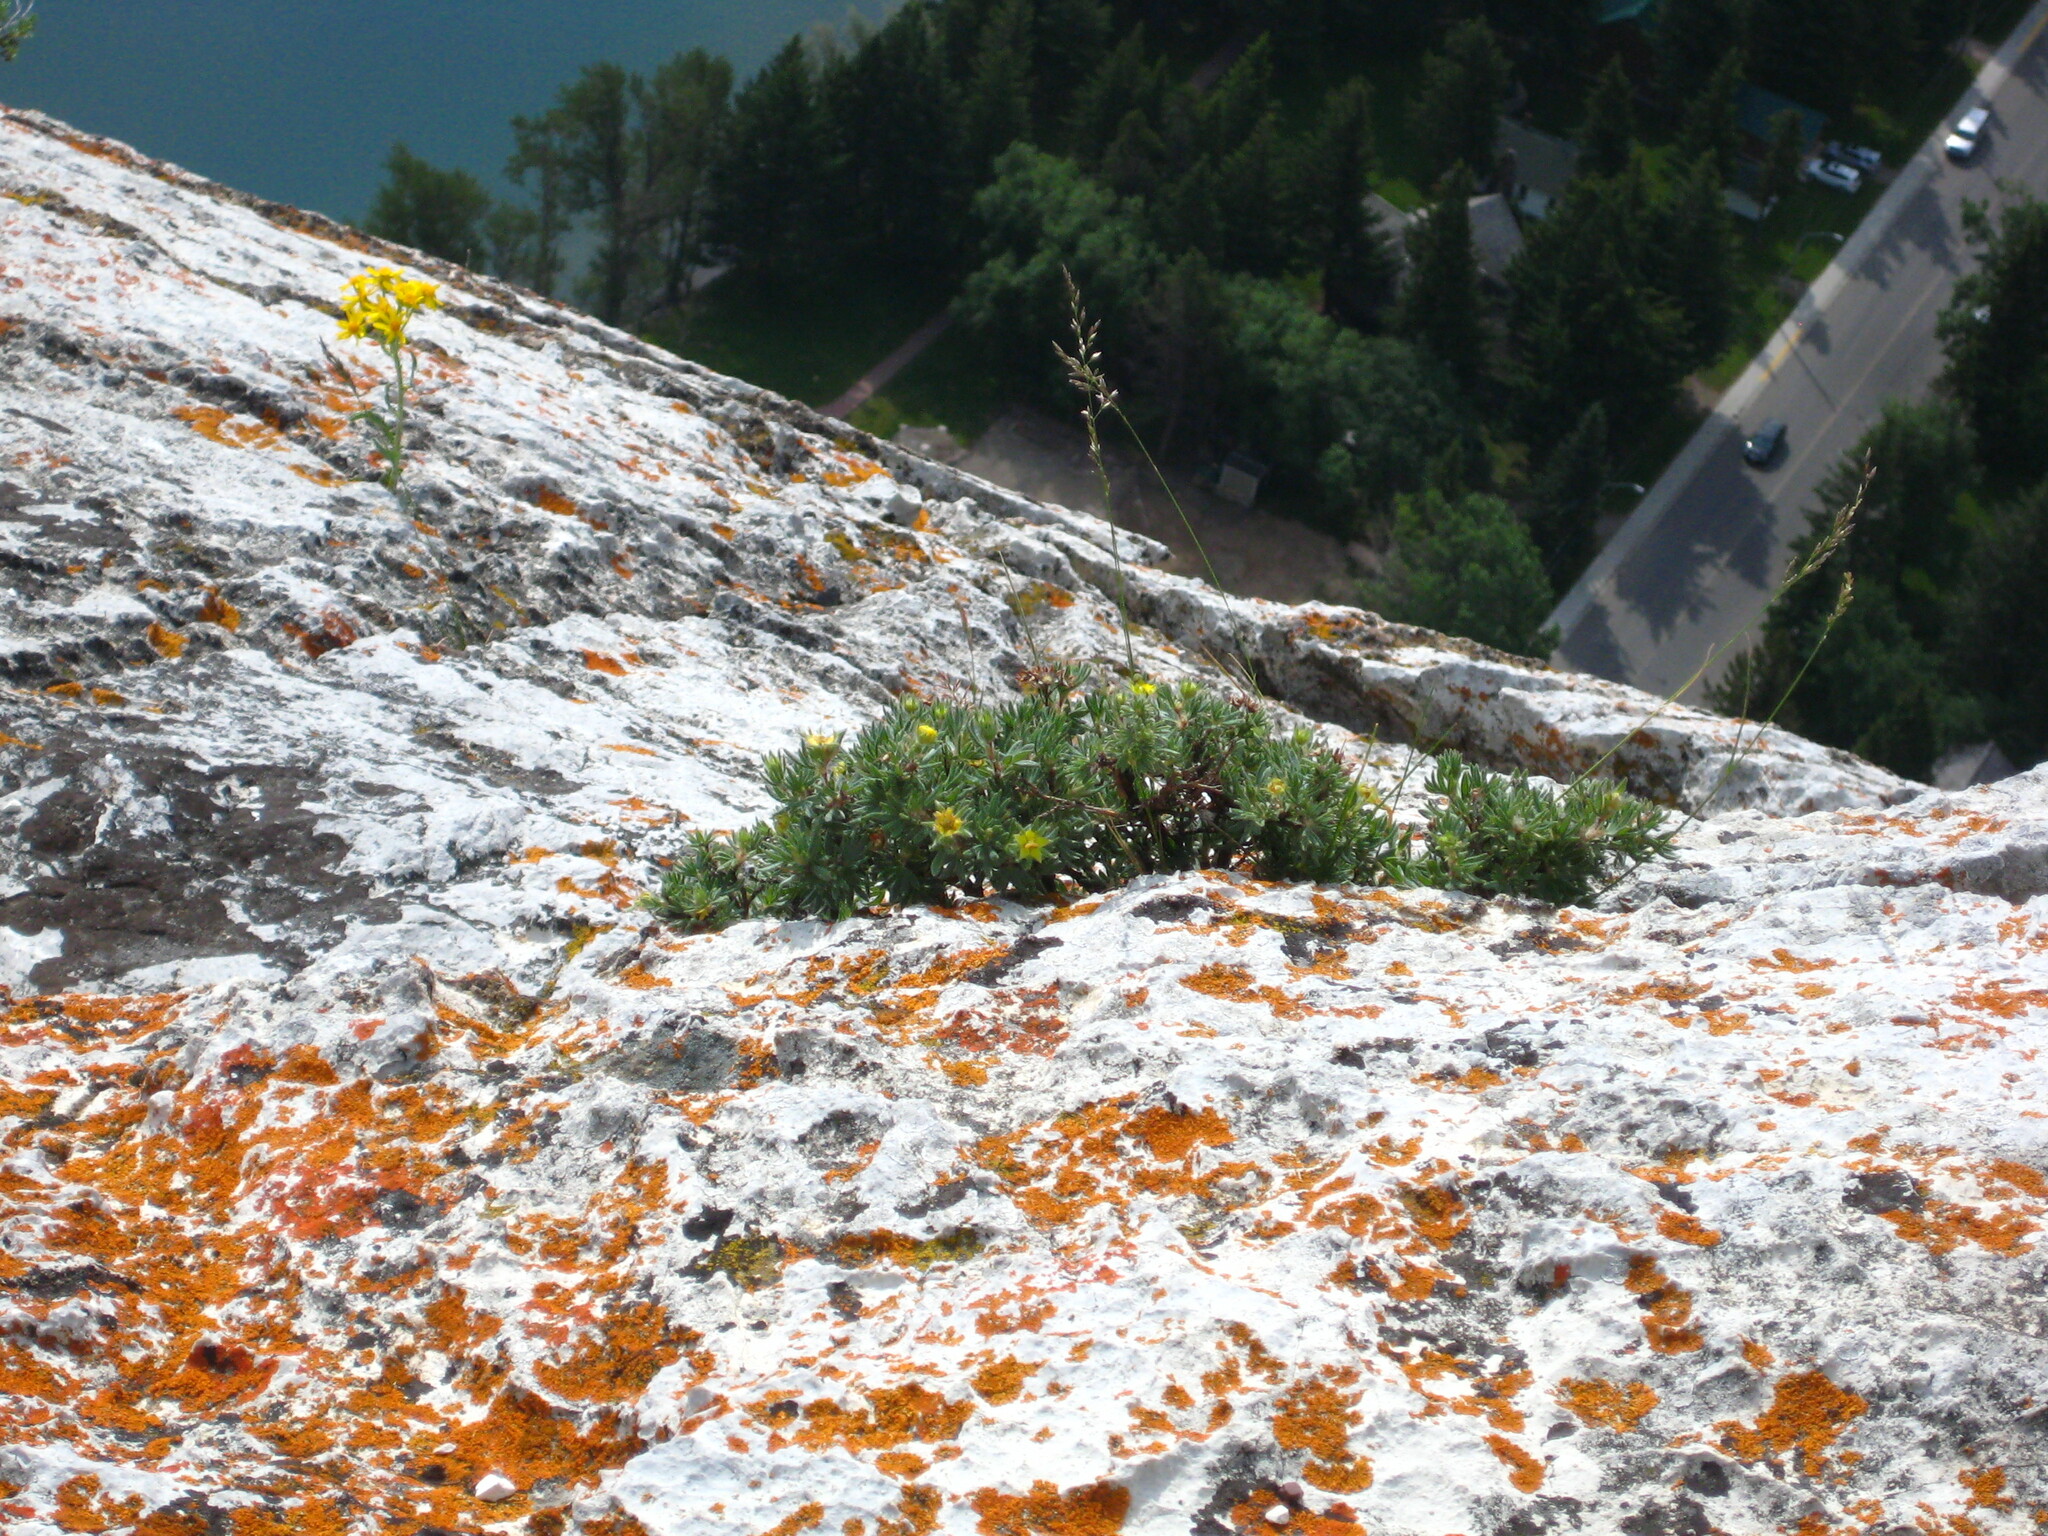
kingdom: Plantae
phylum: Tracheophyta
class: Magnoliopsida
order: Rosales
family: Rosaceae
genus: Dasiphora
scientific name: Dasiphora fruticosa
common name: Shrubby cinquefoil
